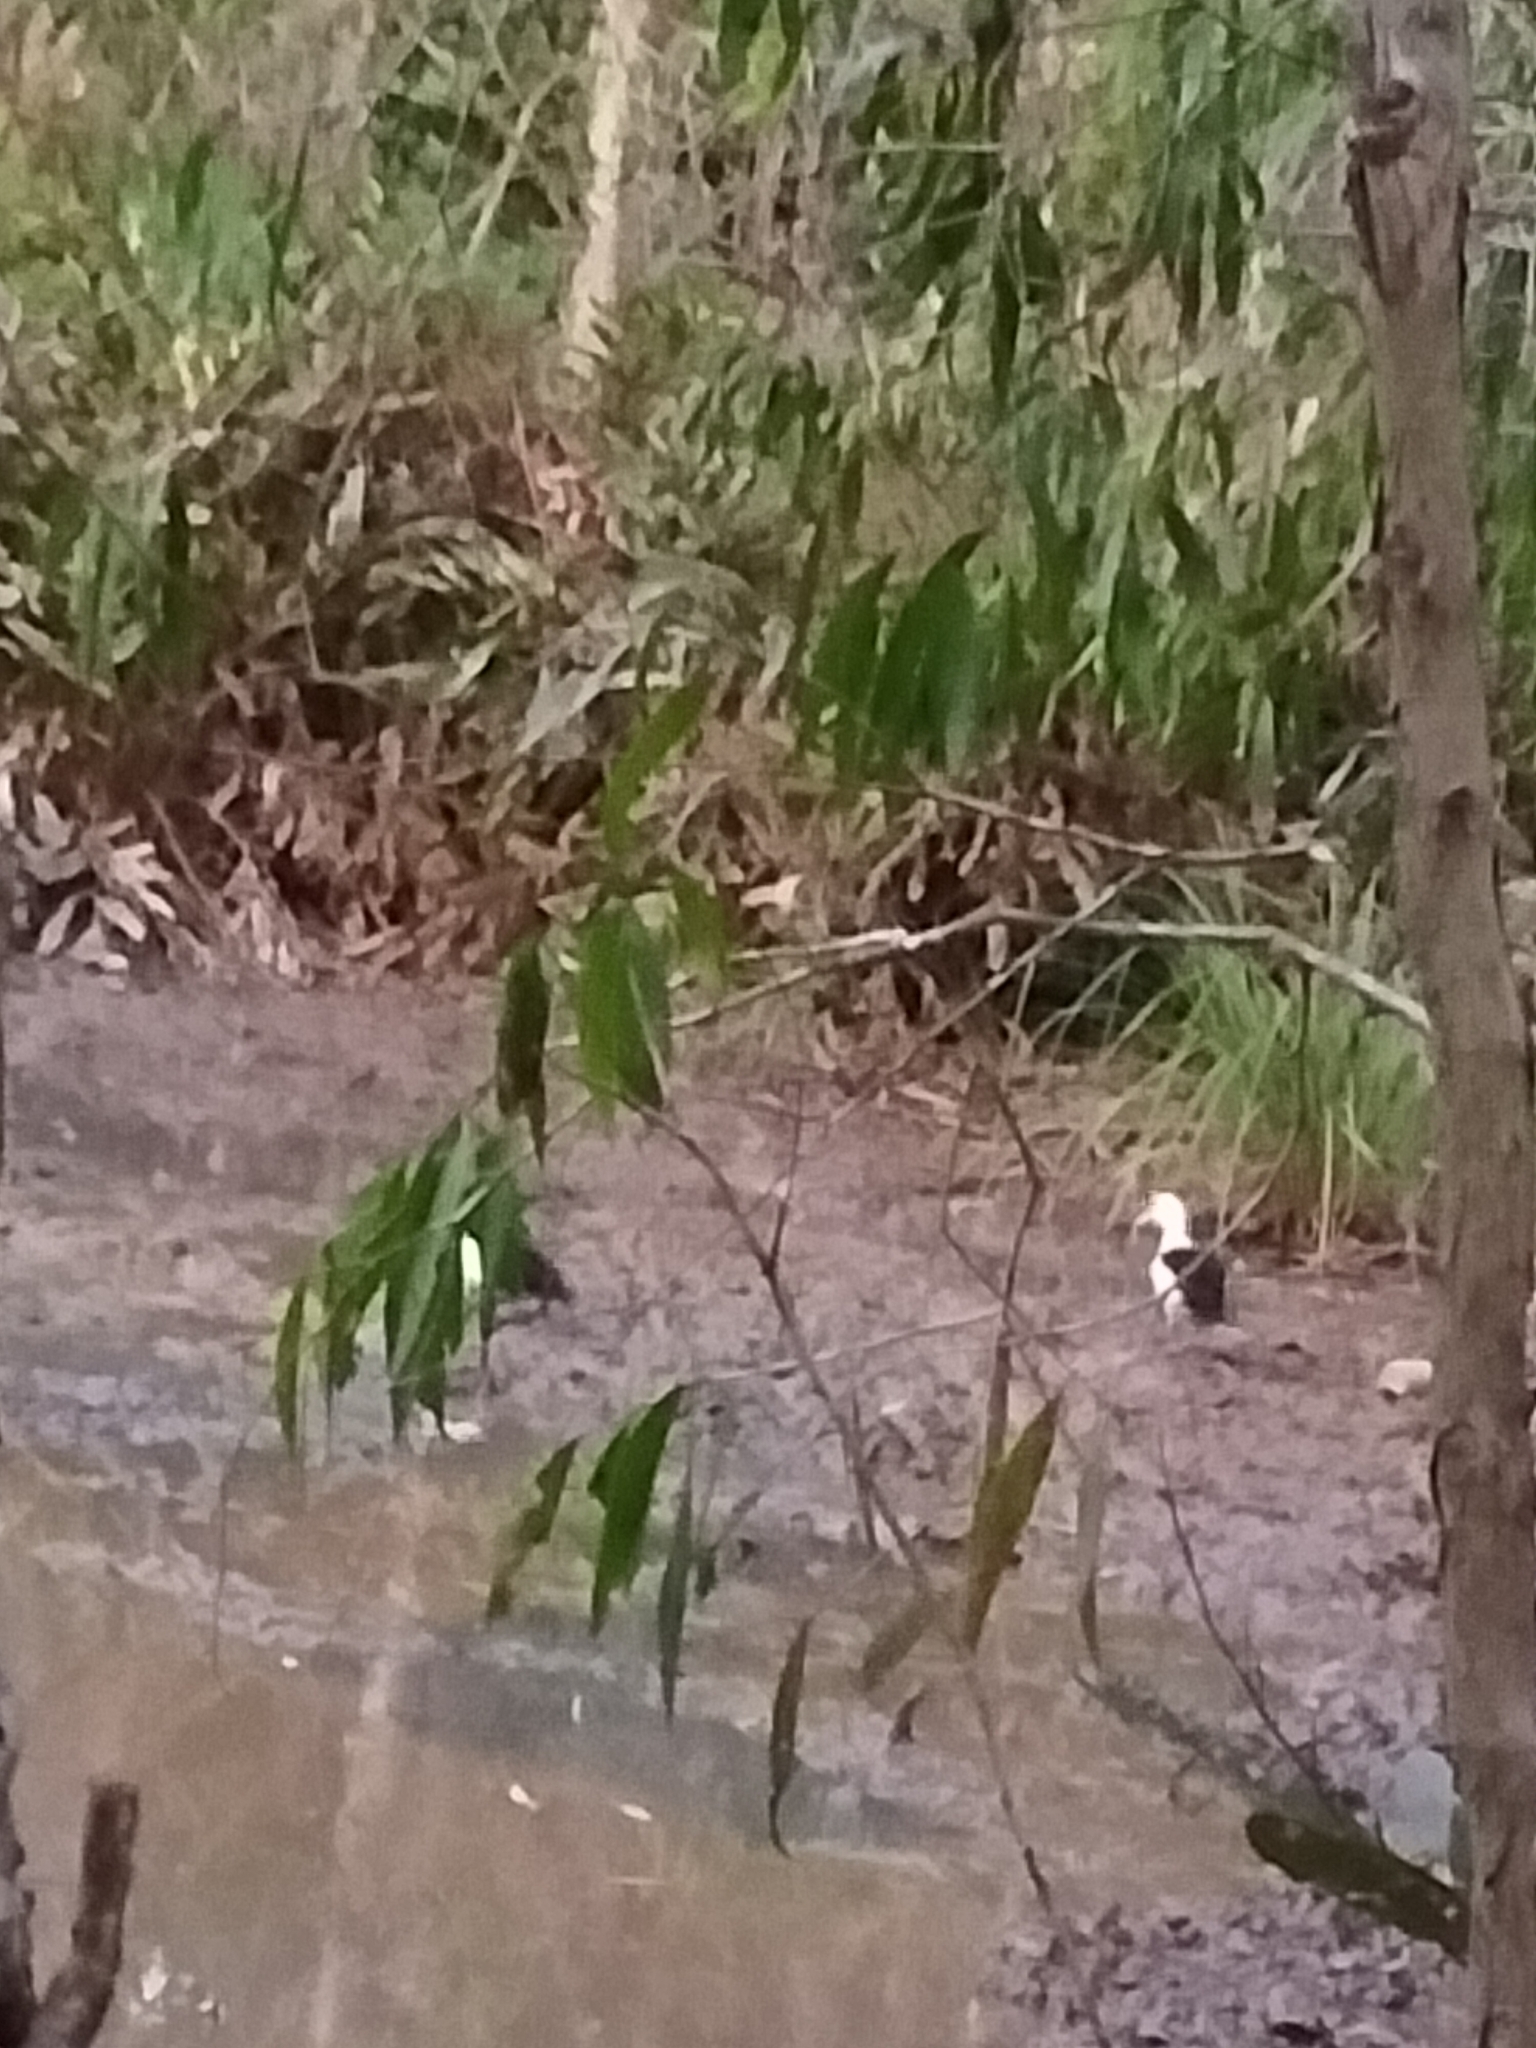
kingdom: Animalia
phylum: Chordata
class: Aves
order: Anseriformes
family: Anatidae
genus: Radjah
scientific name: Radjah radjah
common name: Radjah shelduck
